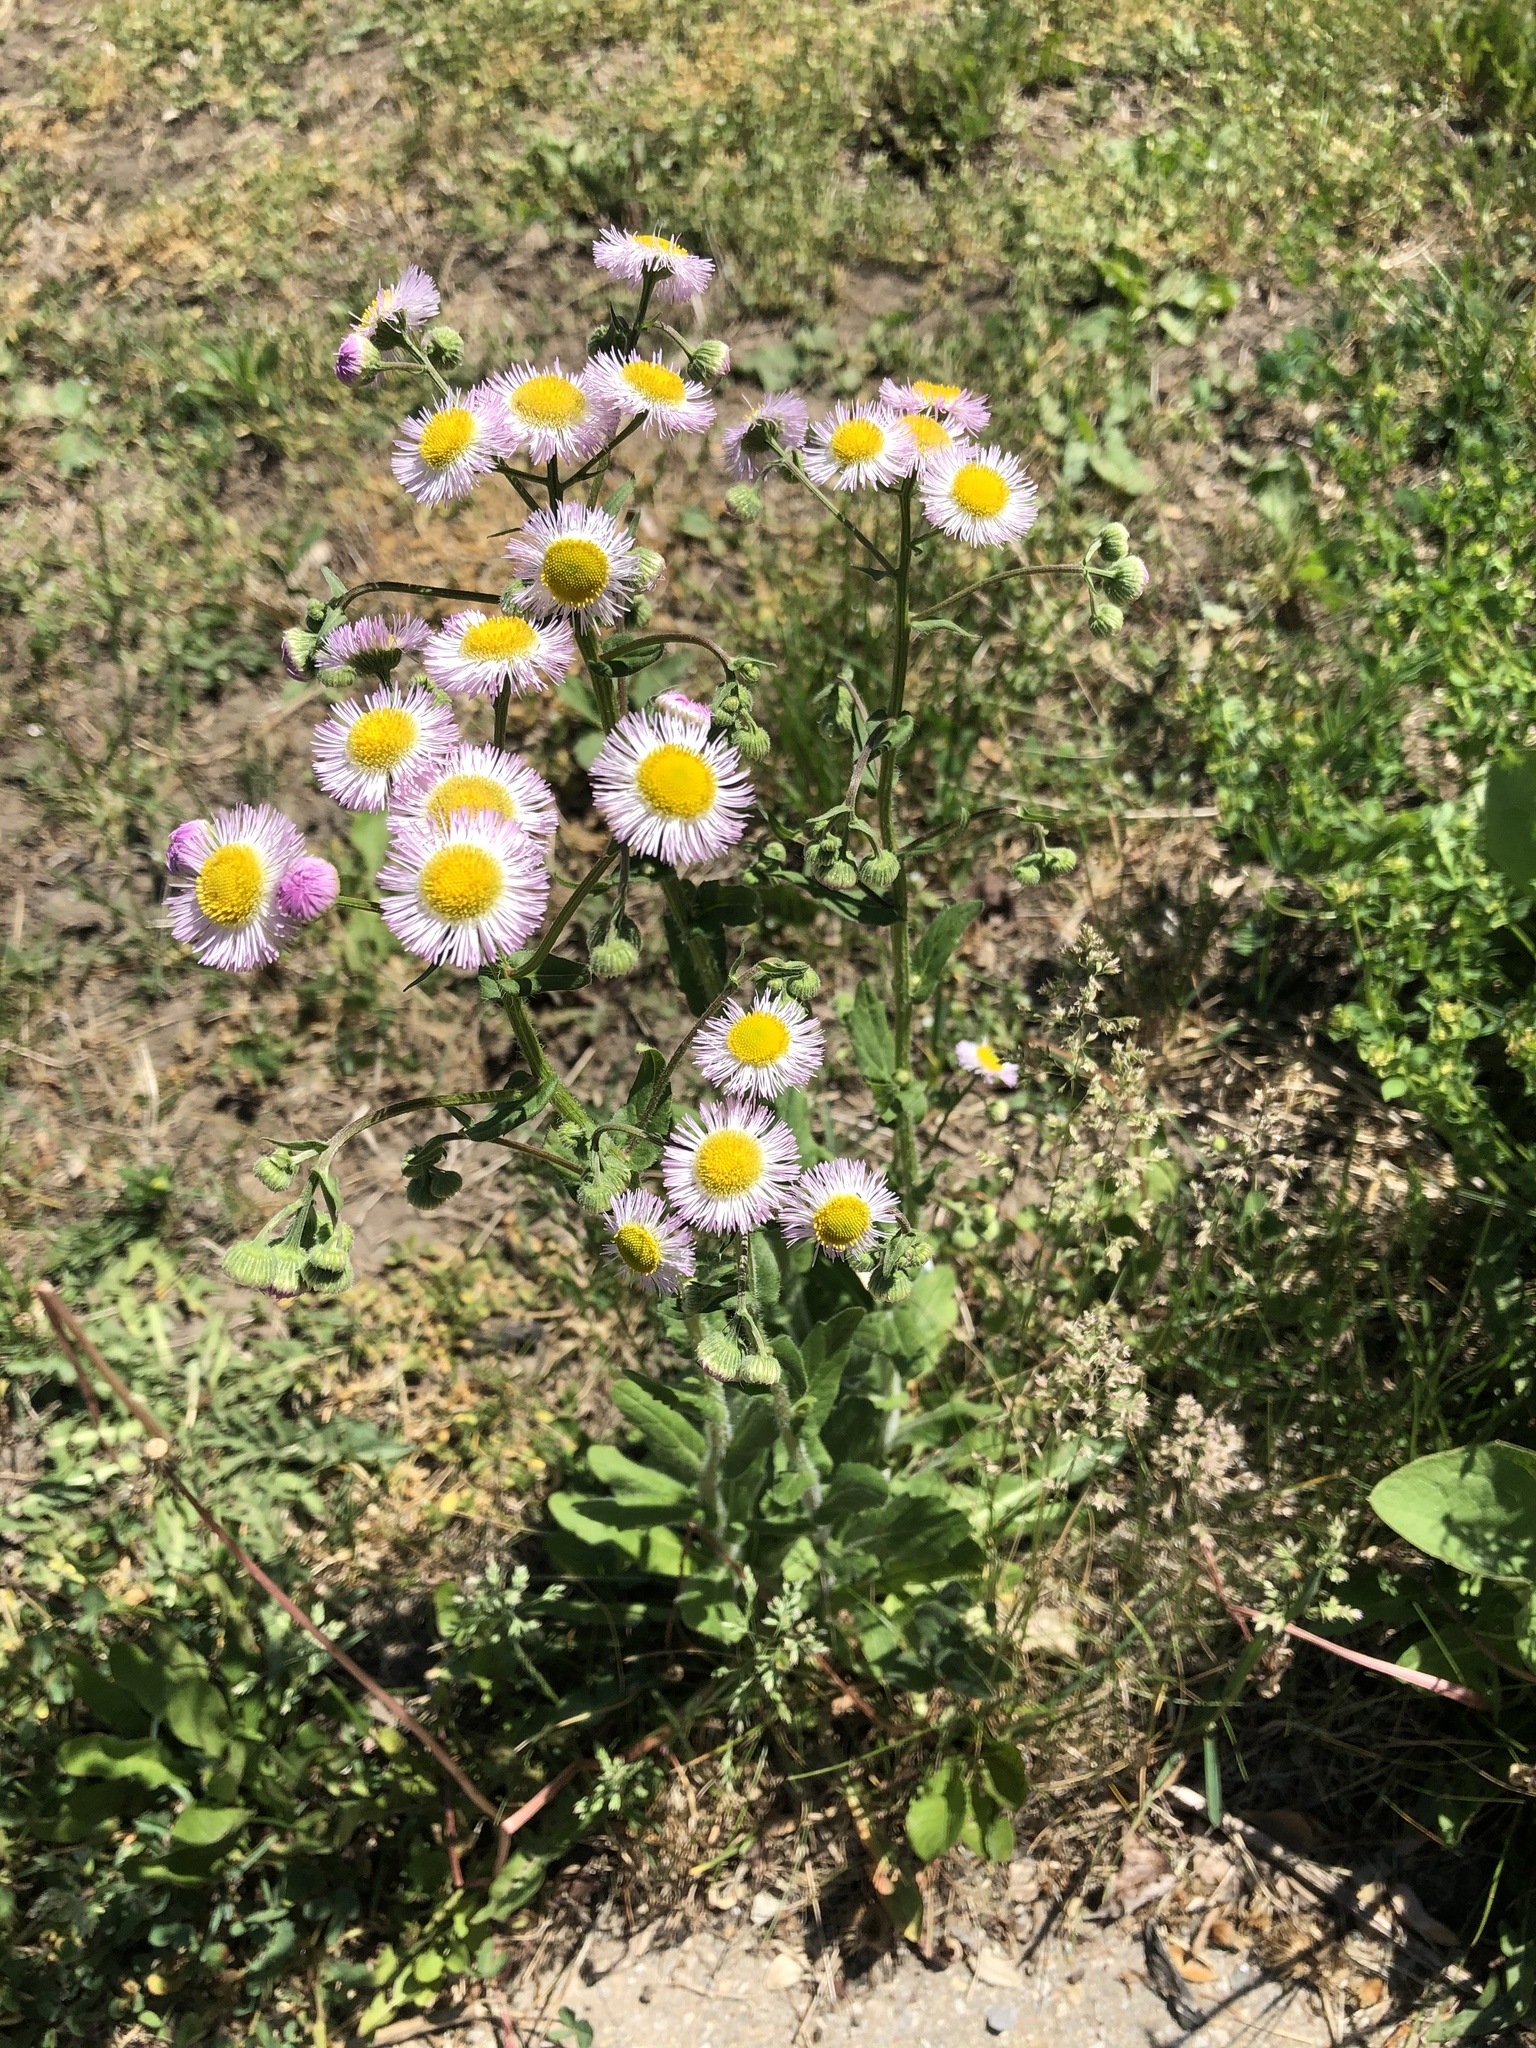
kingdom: Plantae
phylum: Tracheophyta
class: Magnoliopsida
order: Asterales
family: Asteraceae
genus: Erigeron
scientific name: Erigeron philadelphicus
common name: Robin's-plantain
